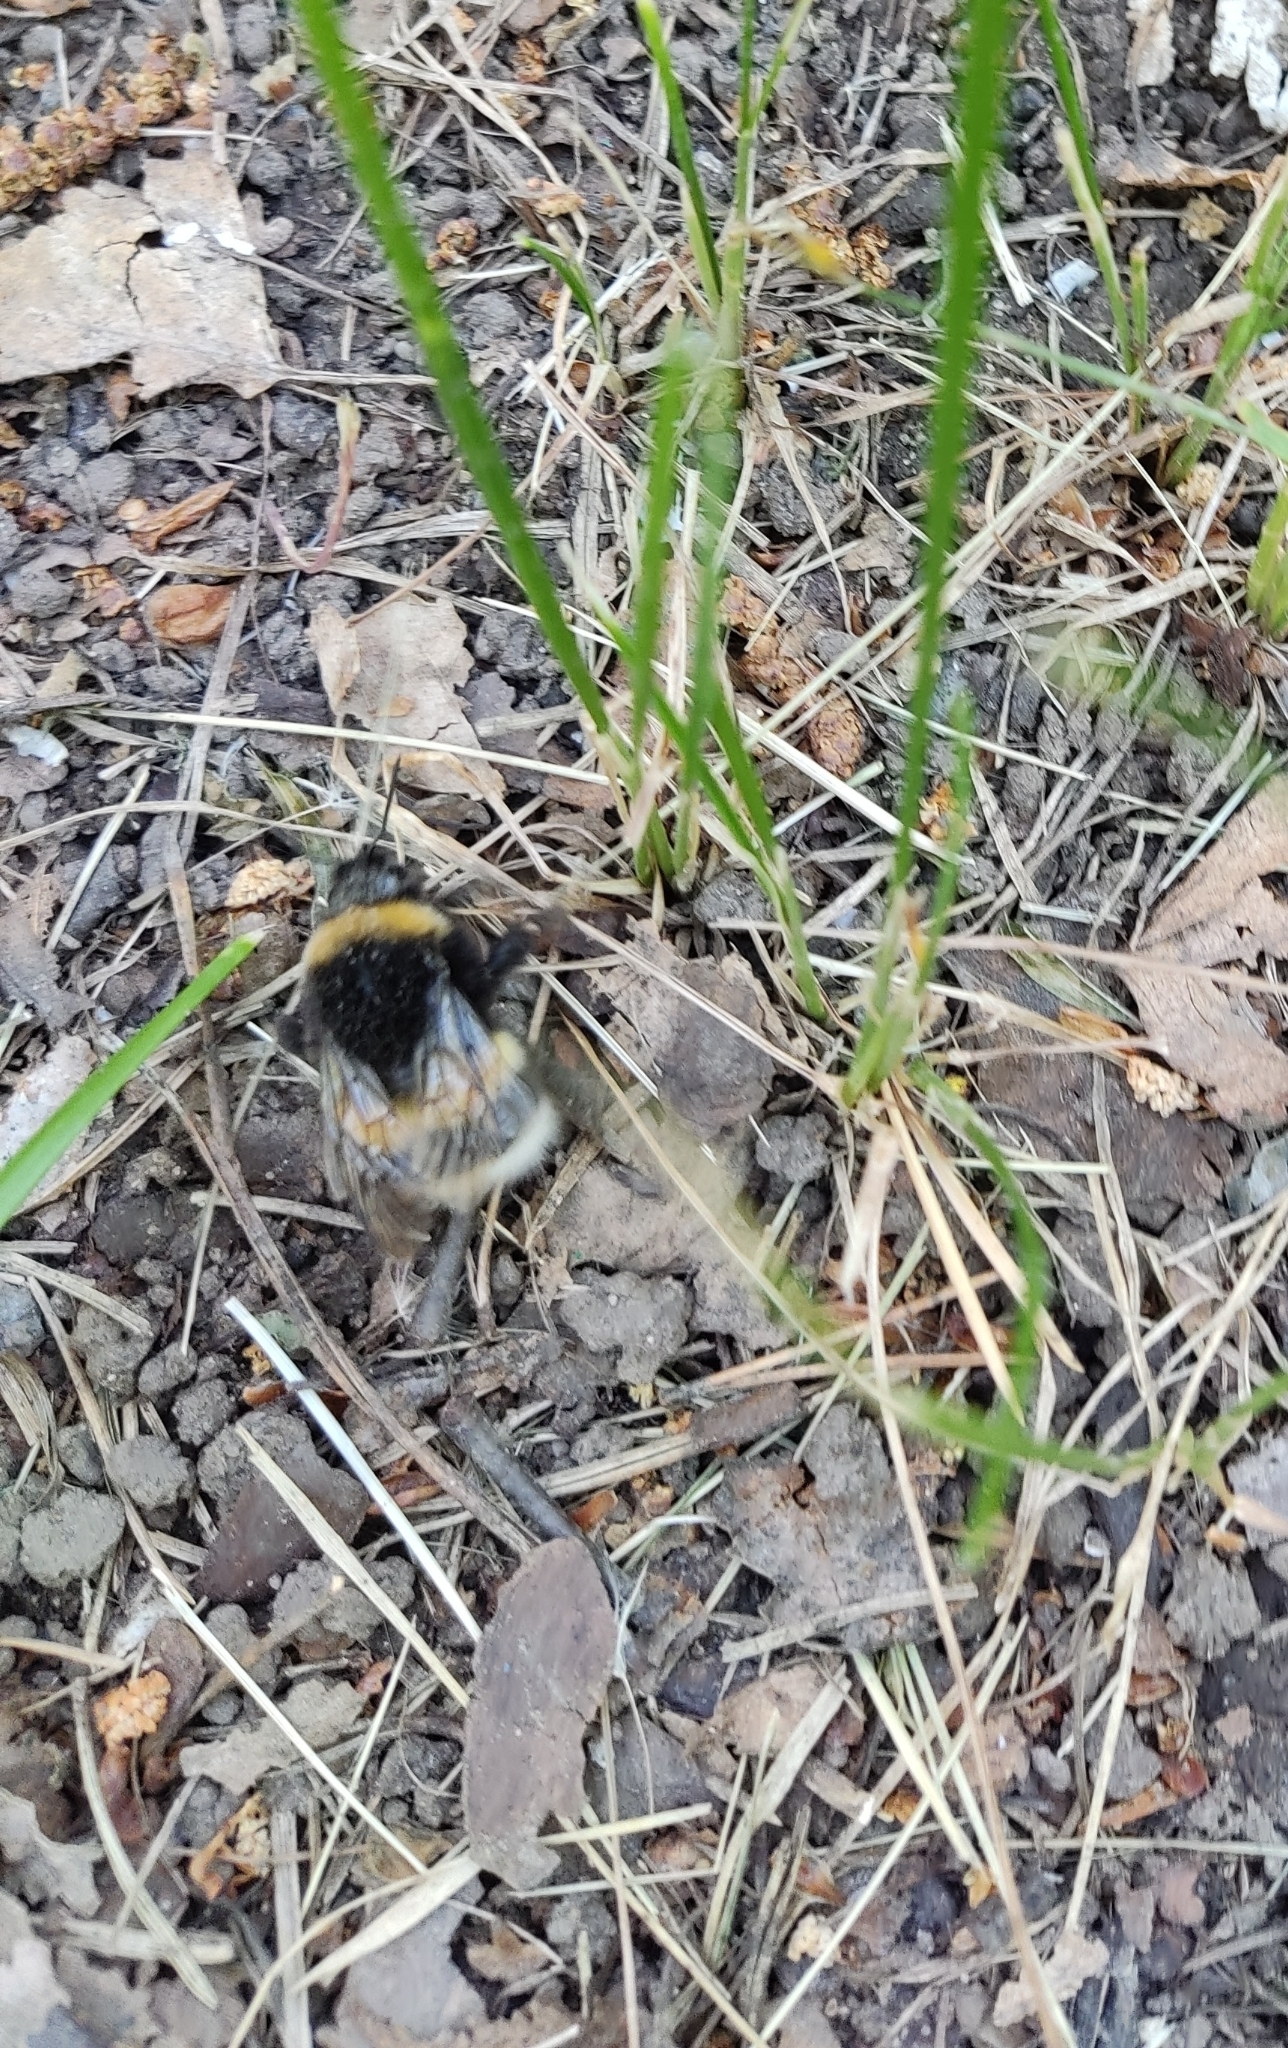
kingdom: Animalia
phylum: Arthropoda
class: Insecta
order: Hymenoptera
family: Apidae
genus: Bombus
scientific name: Bombus
